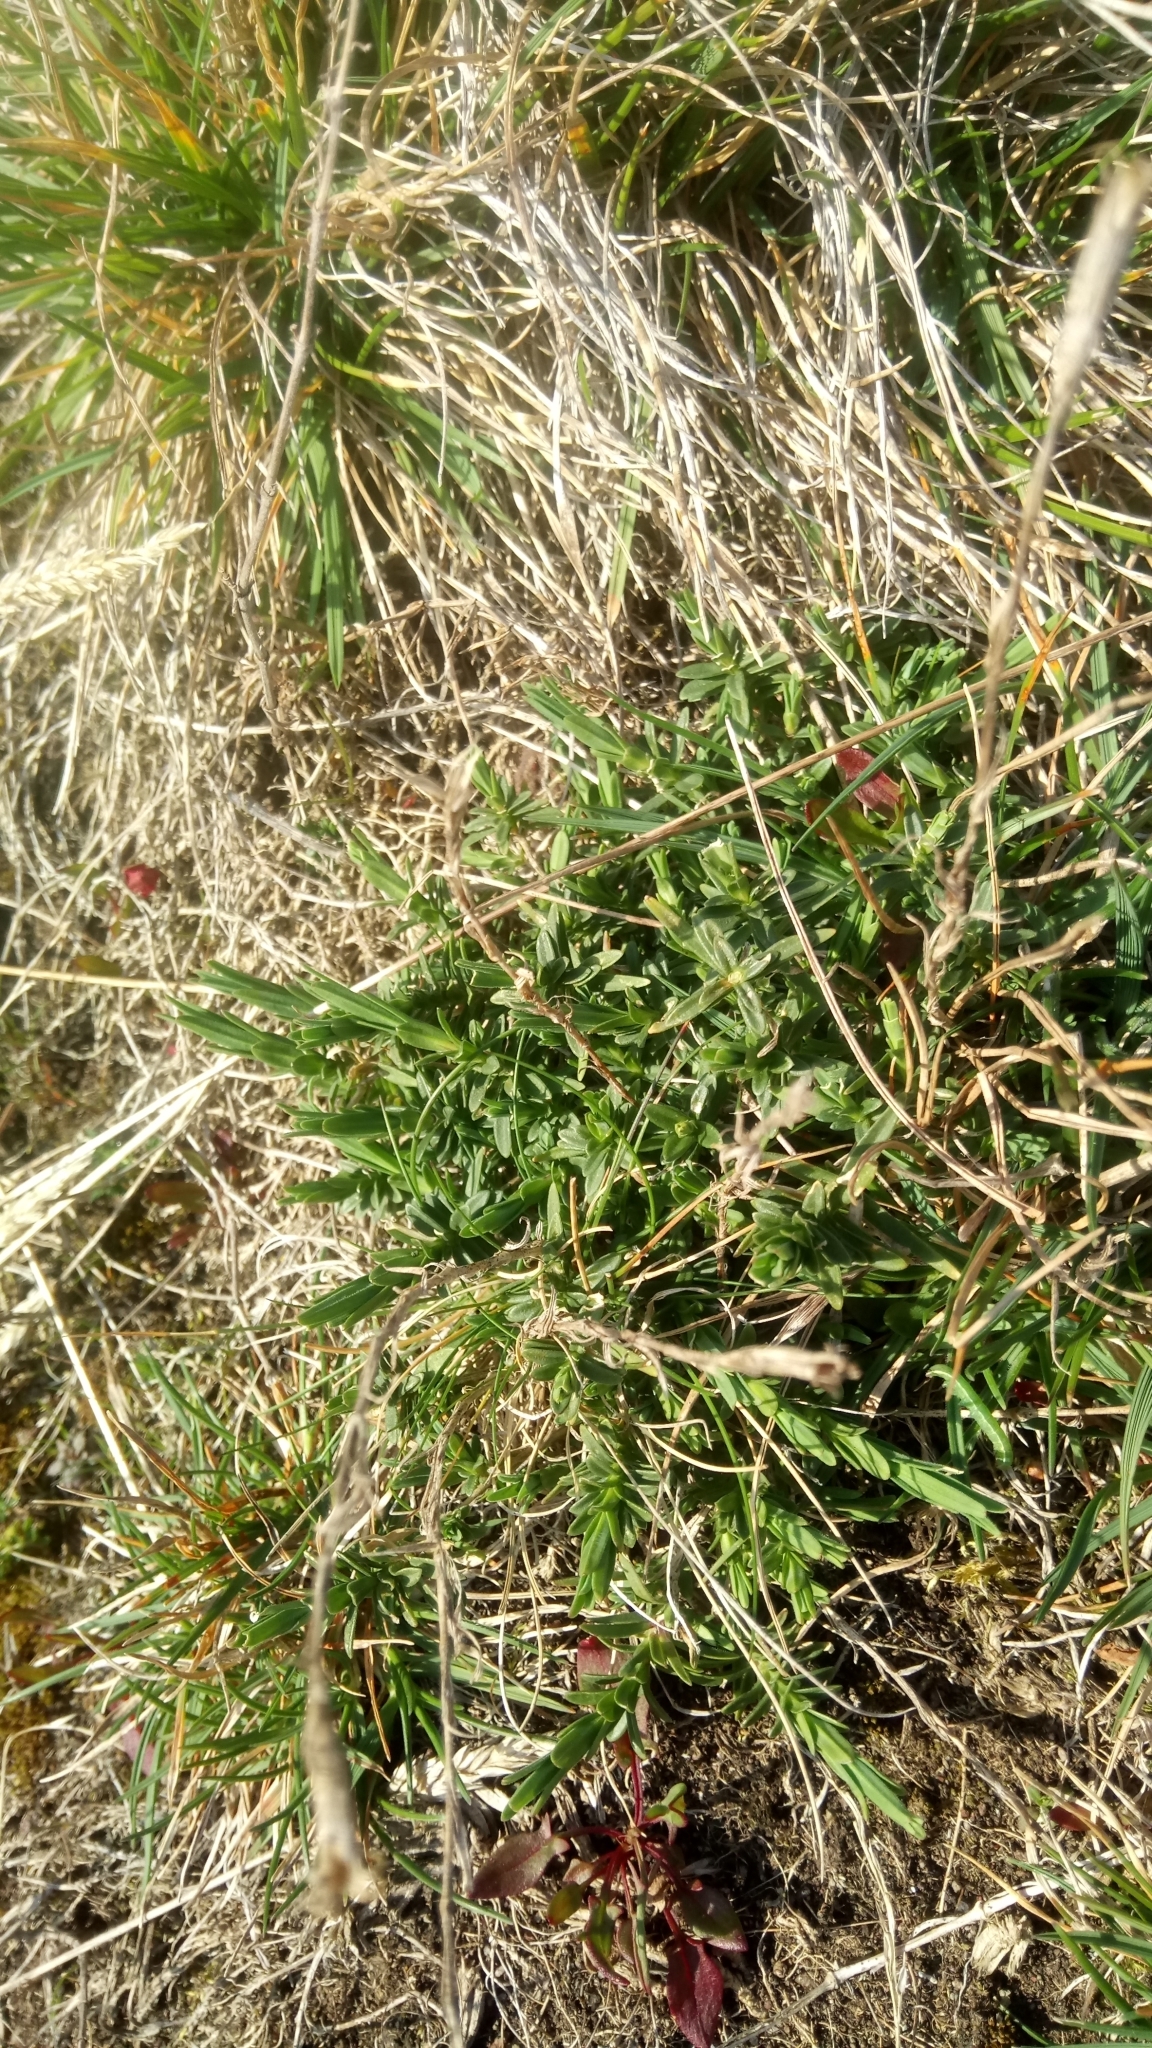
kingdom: Plantae
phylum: Tracheophyta
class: Magnoliopsida
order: Caryophyllales
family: Caryophyllaceae
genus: Dianthus
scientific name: Dianthus deltoides
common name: Maiden pink
